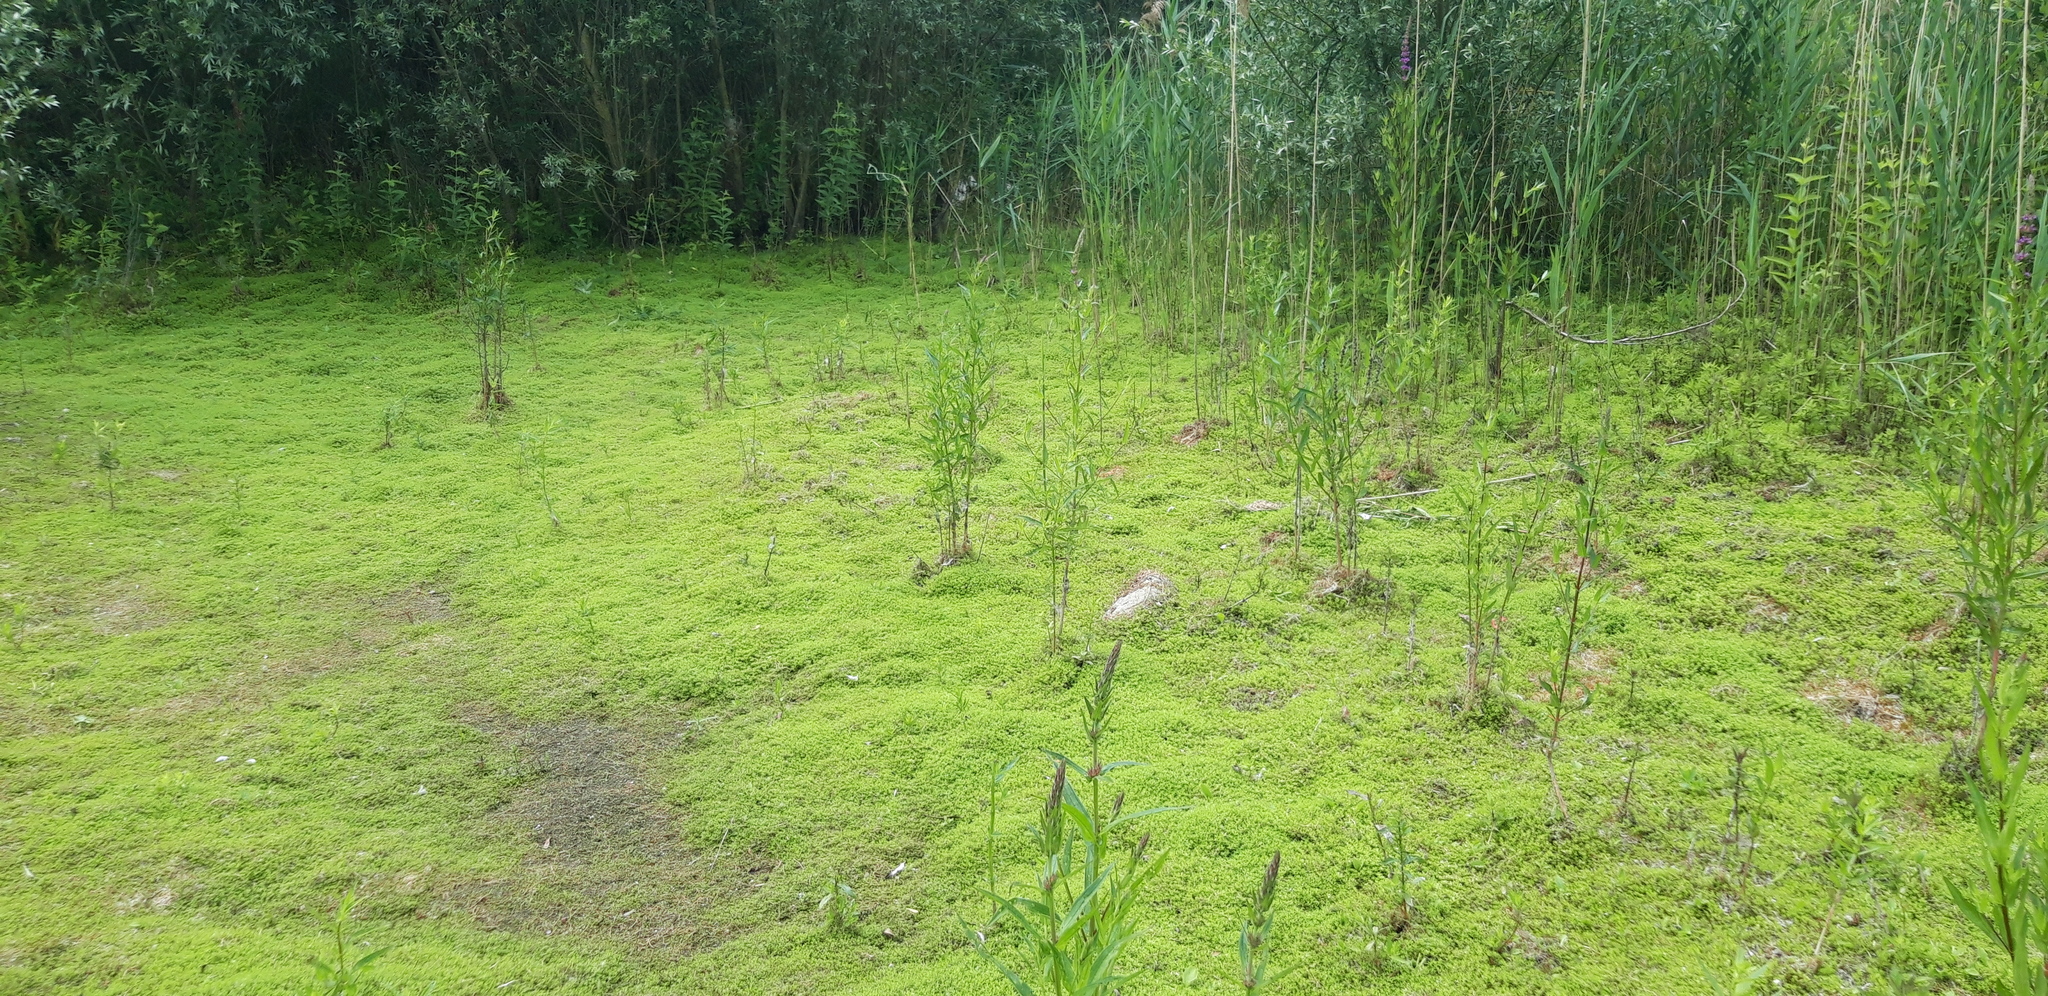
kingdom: Plantae
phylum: Tracheophyta
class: Magnoliopsida
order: Saxifragales
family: Crassulaceae
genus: Crassula
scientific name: Crassula helmsii
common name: New zealand pigmyweed
